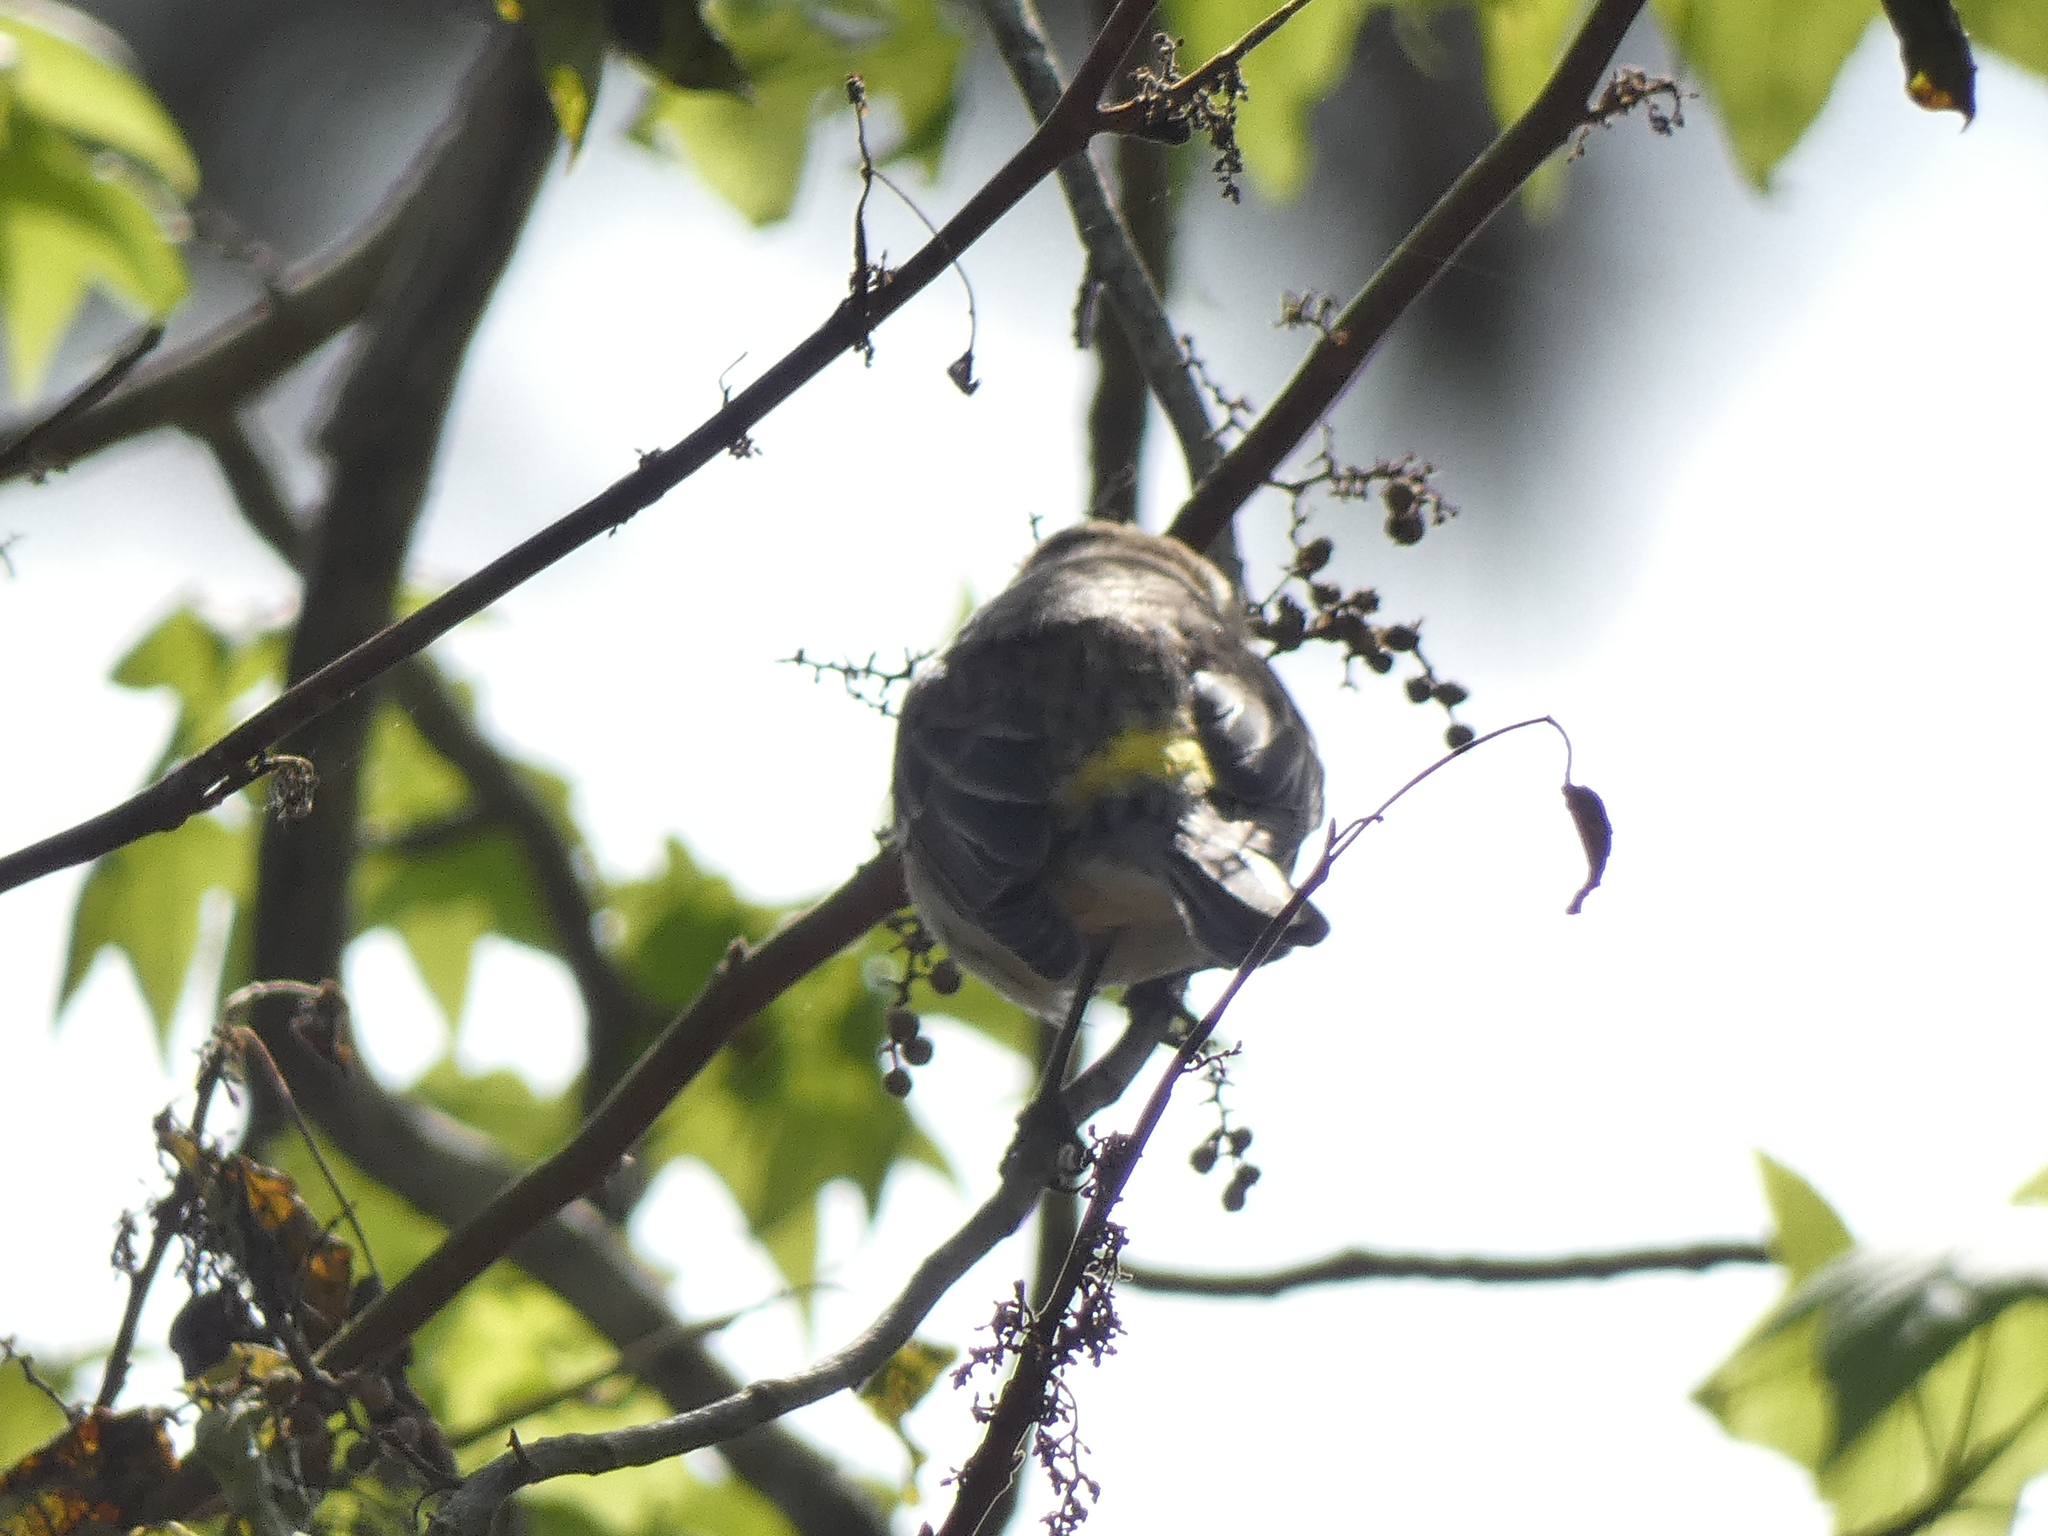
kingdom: Animalia
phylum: Chordata
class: Aves
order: Passeriformes
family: Parulidae
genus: Setophaga
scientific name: Setophaga coronata
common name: Myrtle warbler
